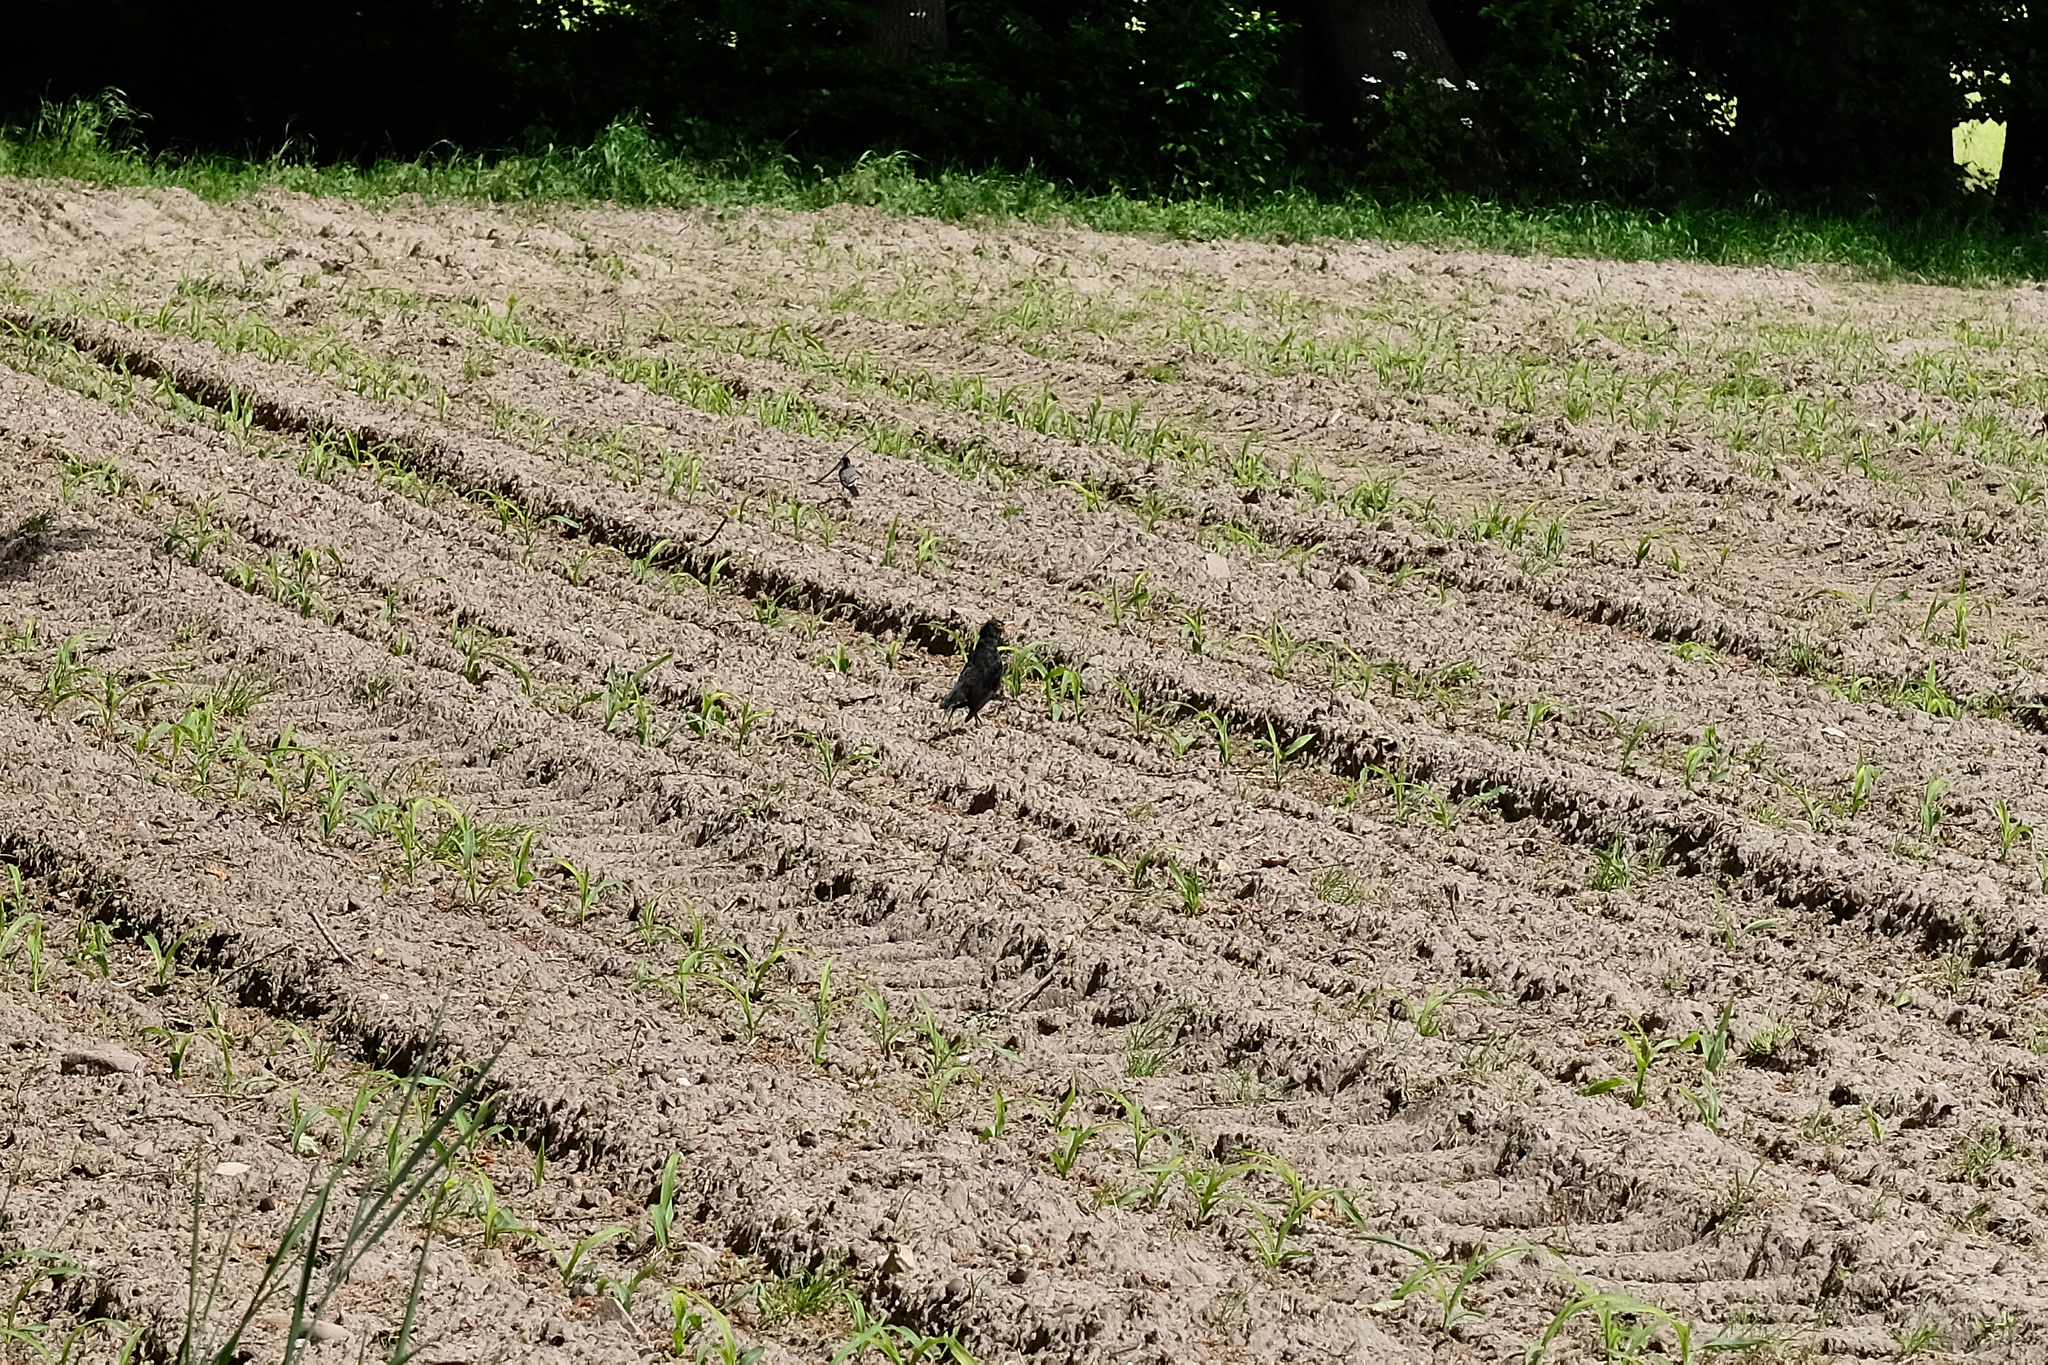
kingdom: Animalia
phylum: Chordata
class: Aves
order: Passeriformes
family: Sturnidae
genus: Sturnus
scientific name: Sturnus vulgaris
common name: Common starling
